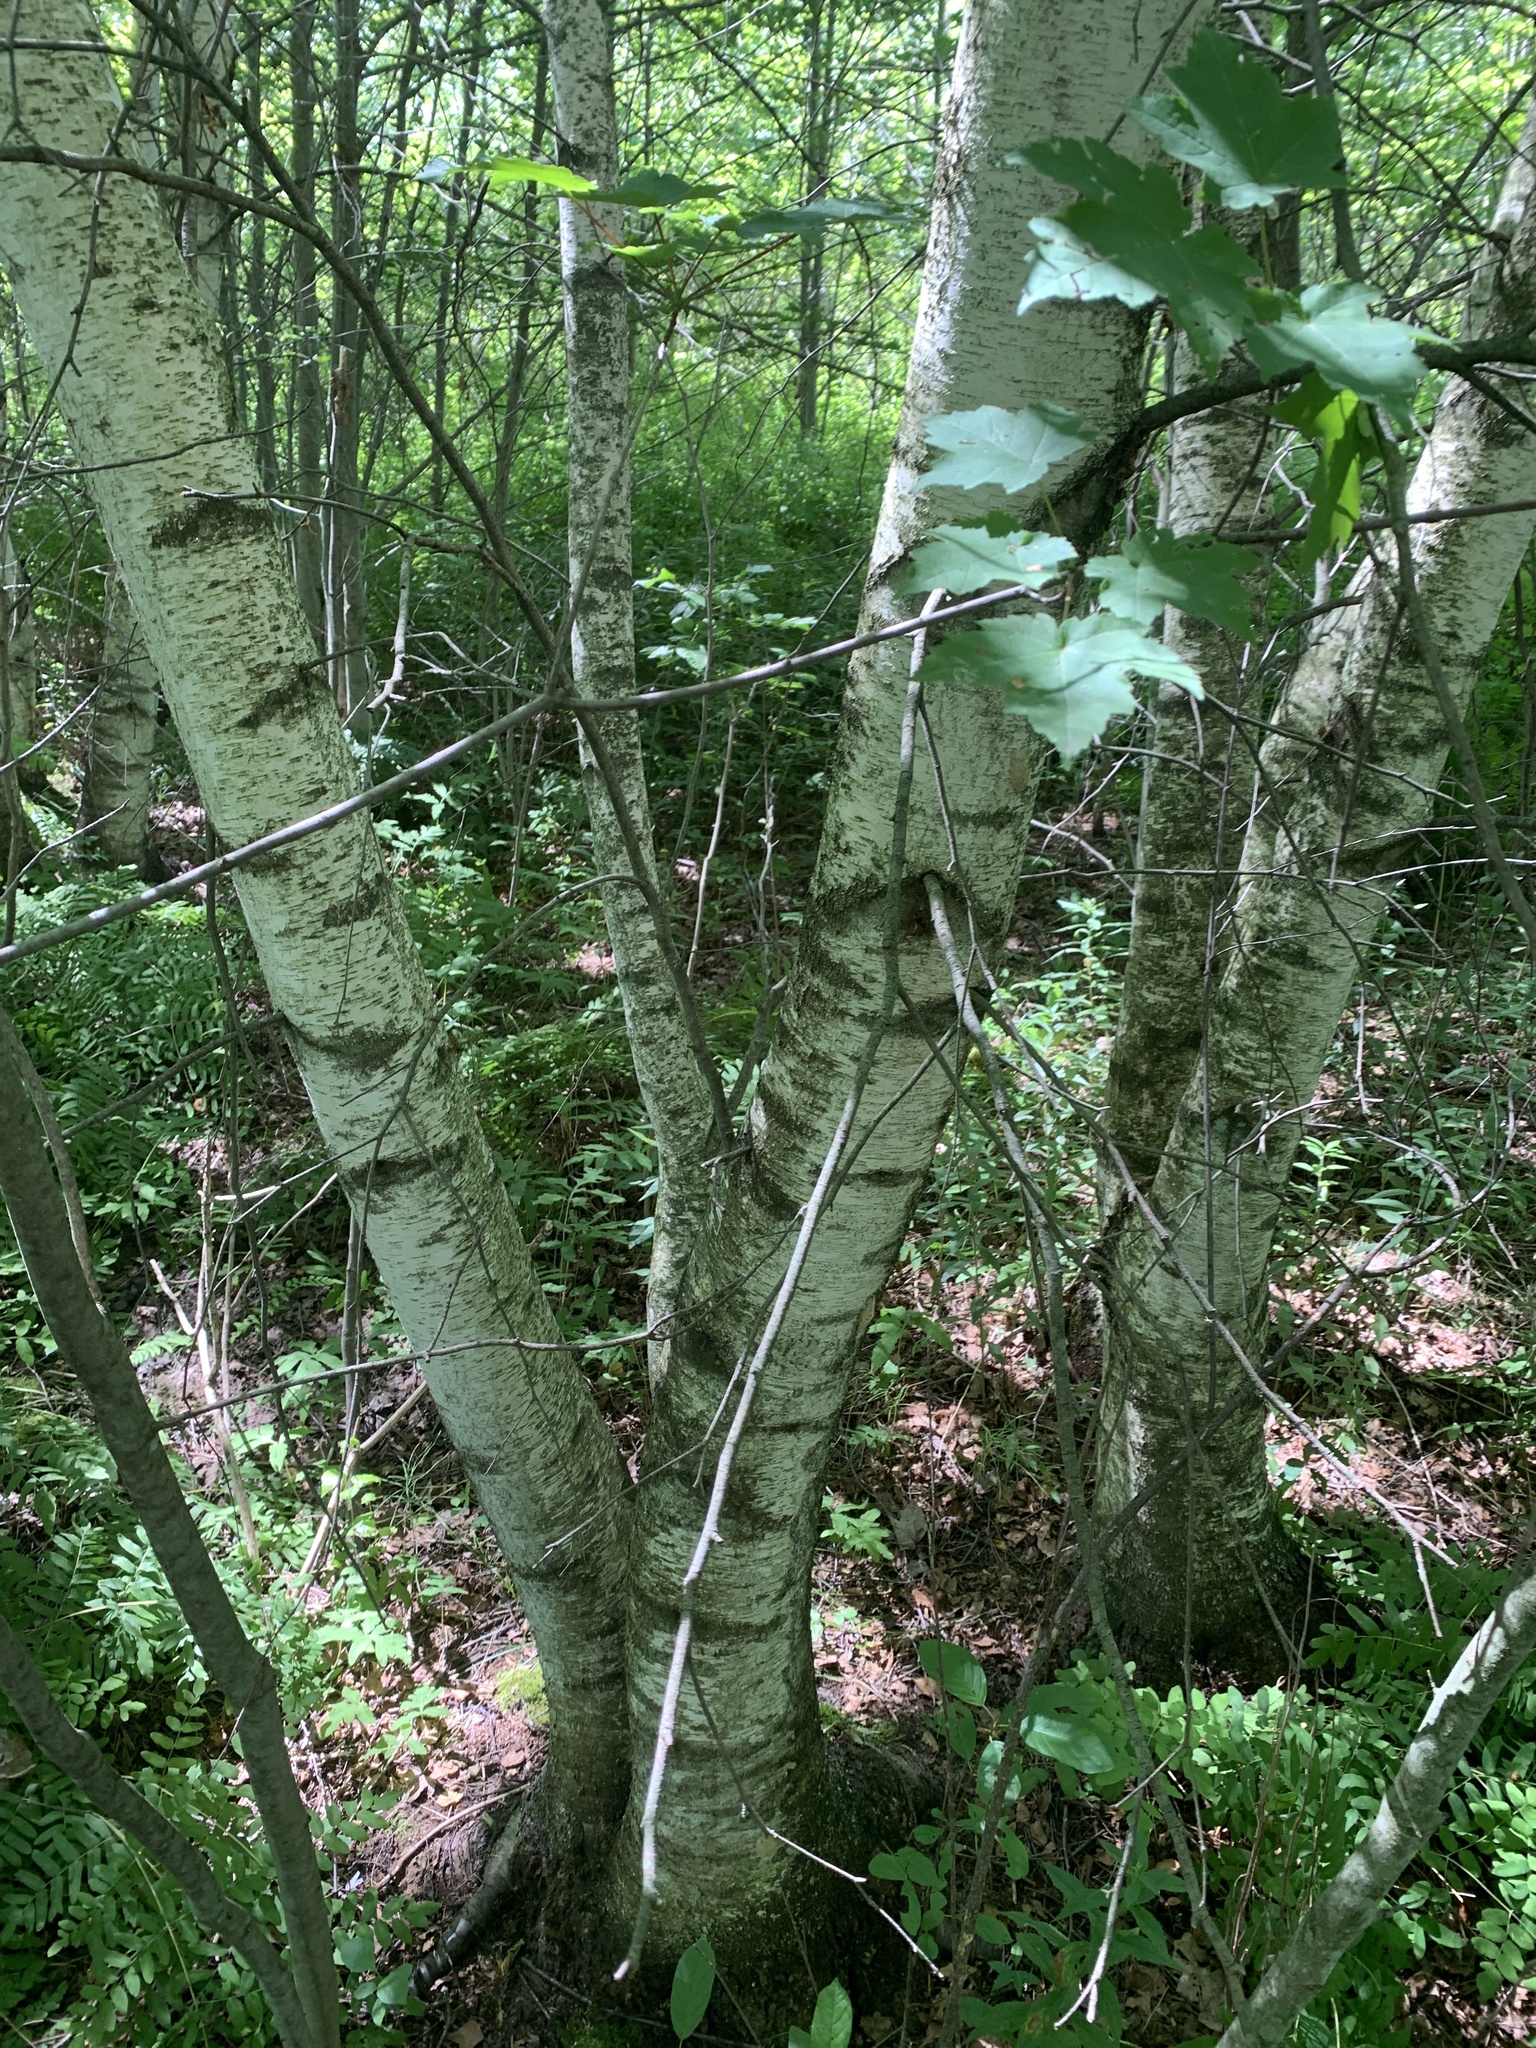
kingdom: Plantae
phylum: Tracheophyta
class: Magnoliopsida
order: Fagales
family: Betulaceae
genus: Betula
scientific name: Betula populifolia
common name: Fire birch
